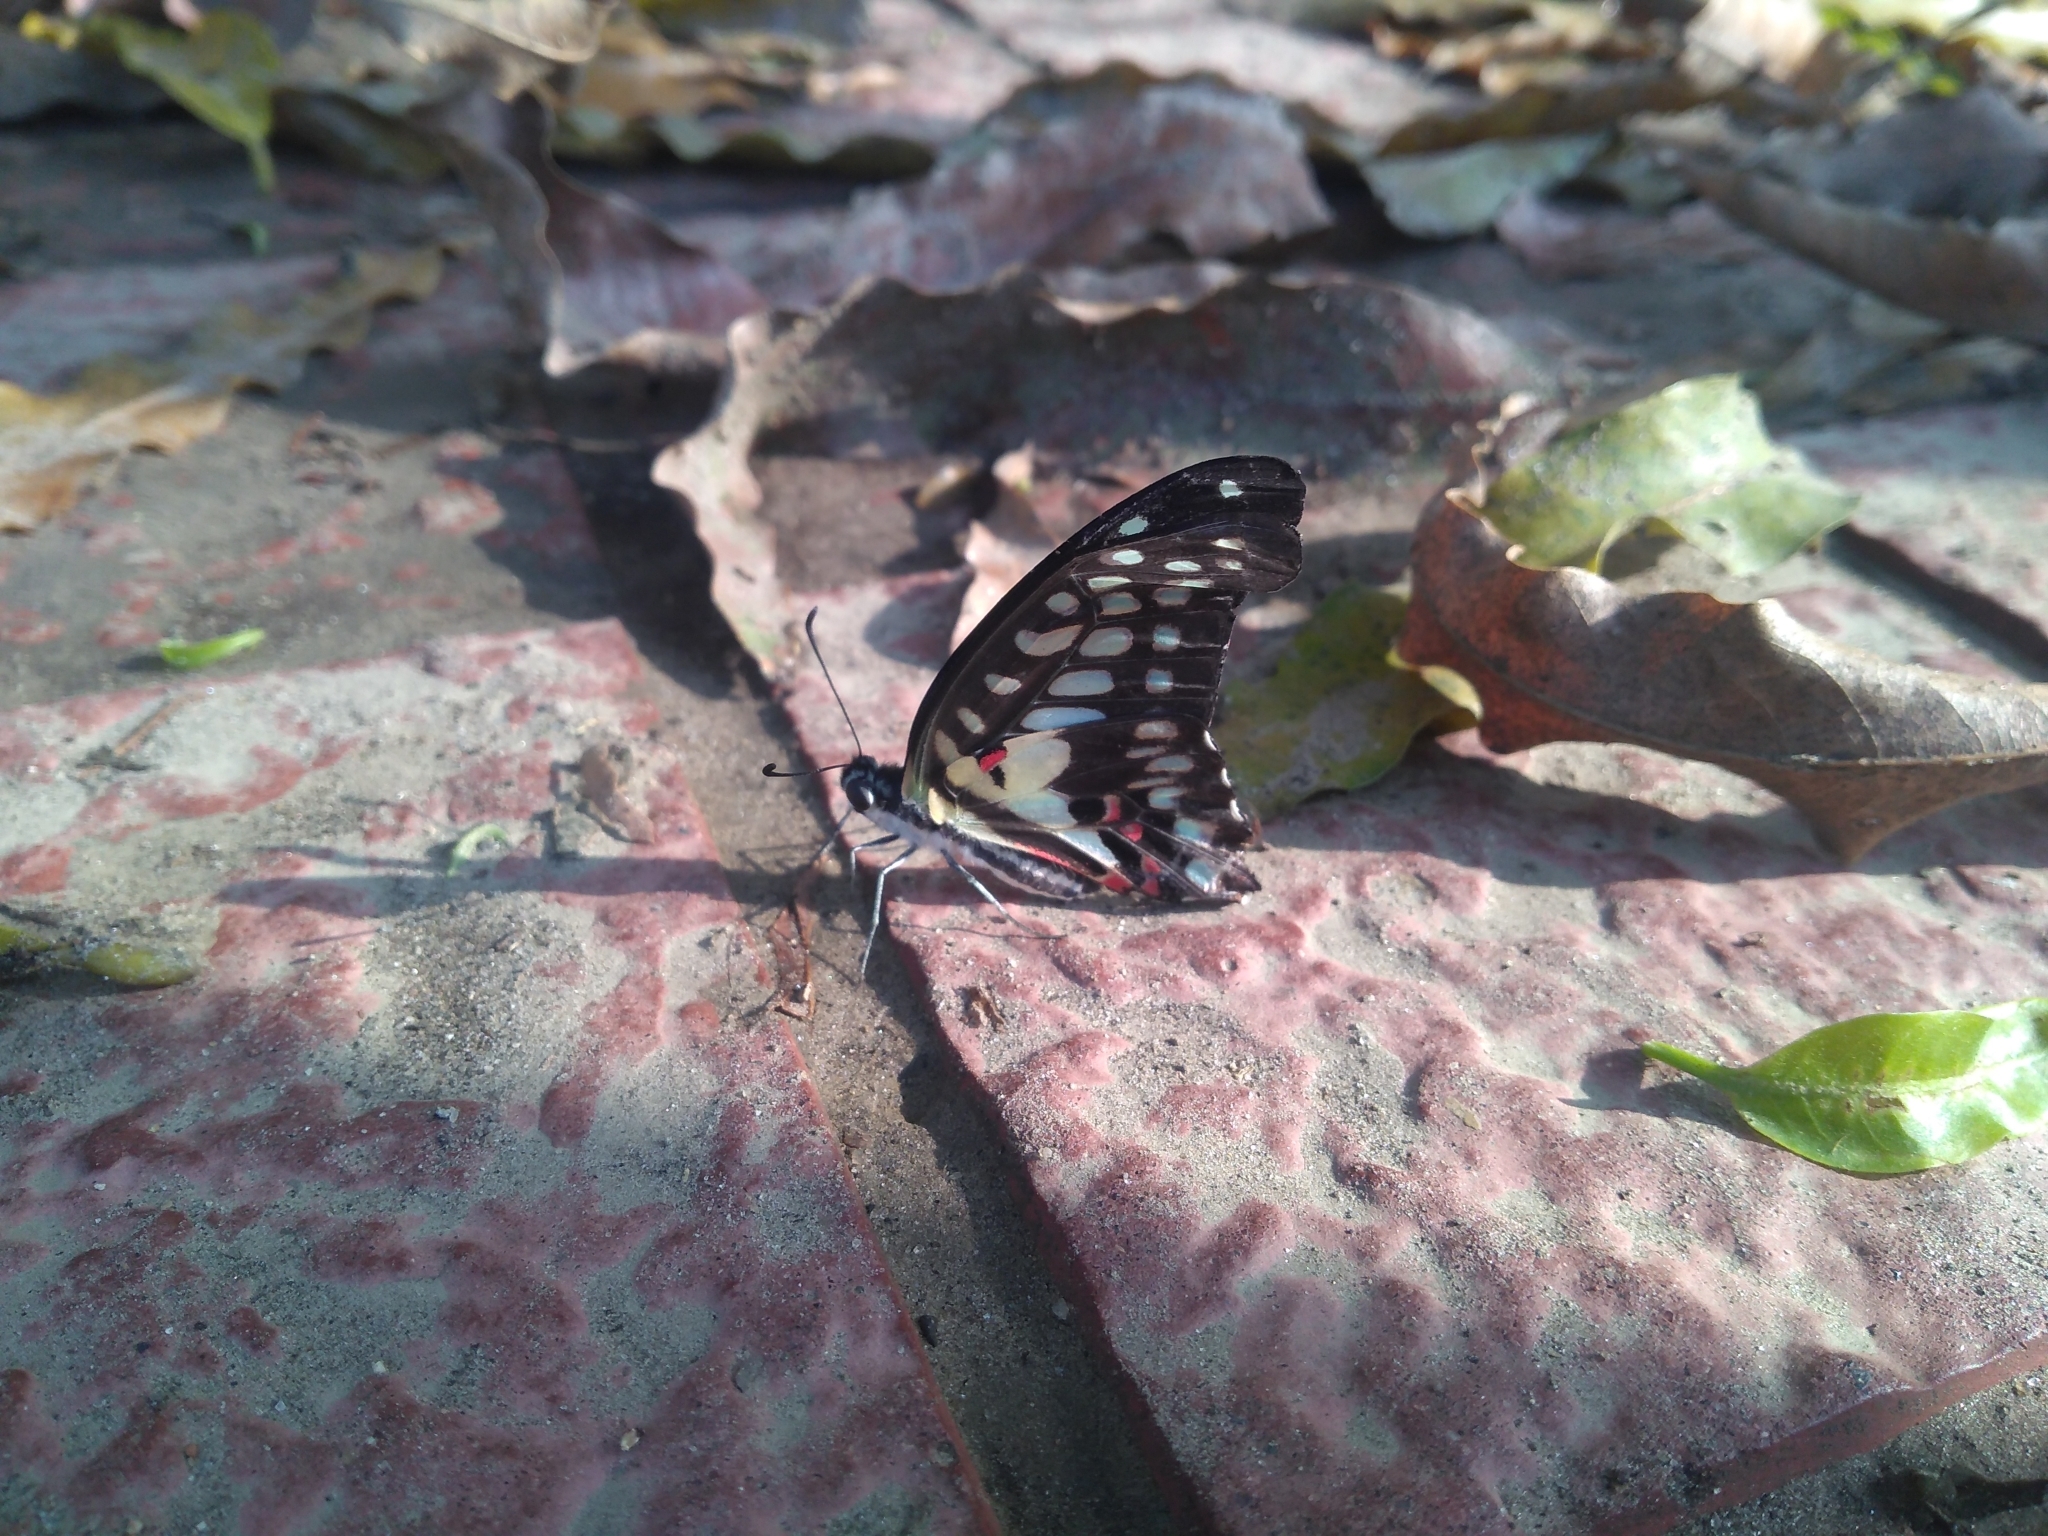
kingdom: Animalia
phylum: Arthropoda
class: Insecta
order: Lepidoptera
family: Papilionidae
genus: Graphium
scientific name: Graphium doson
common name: Common jay
